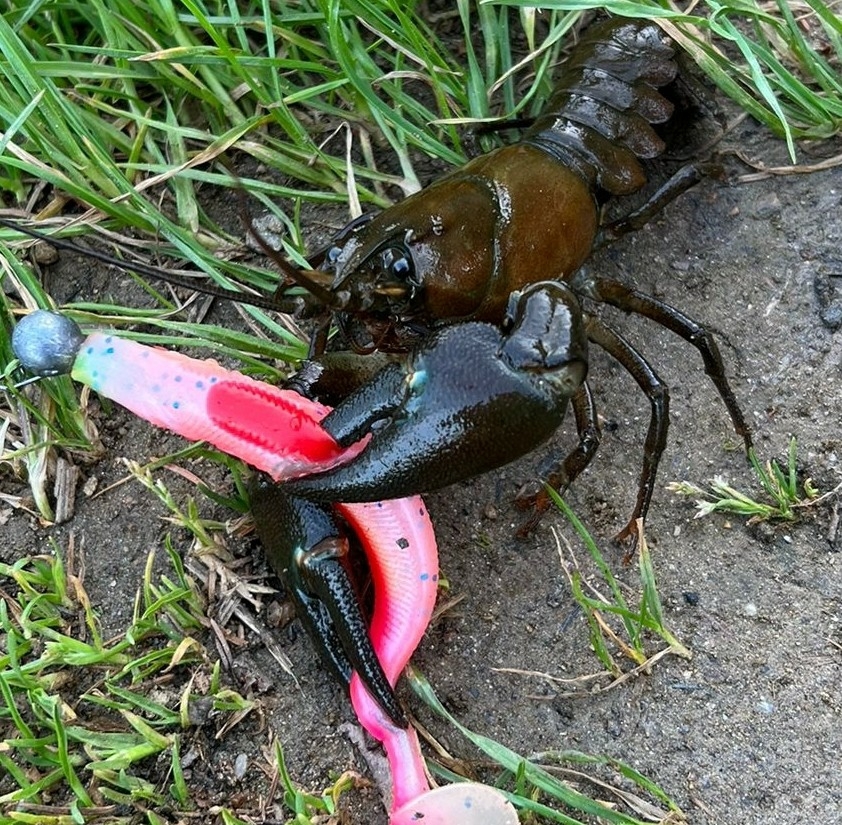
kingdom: Animalia
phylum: Arthropoda
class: Malacostraca
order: Decapoda
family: Astacidae
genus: Pacifastacus
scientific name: Pacifastacus leniusculus
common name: Signal crayfish
